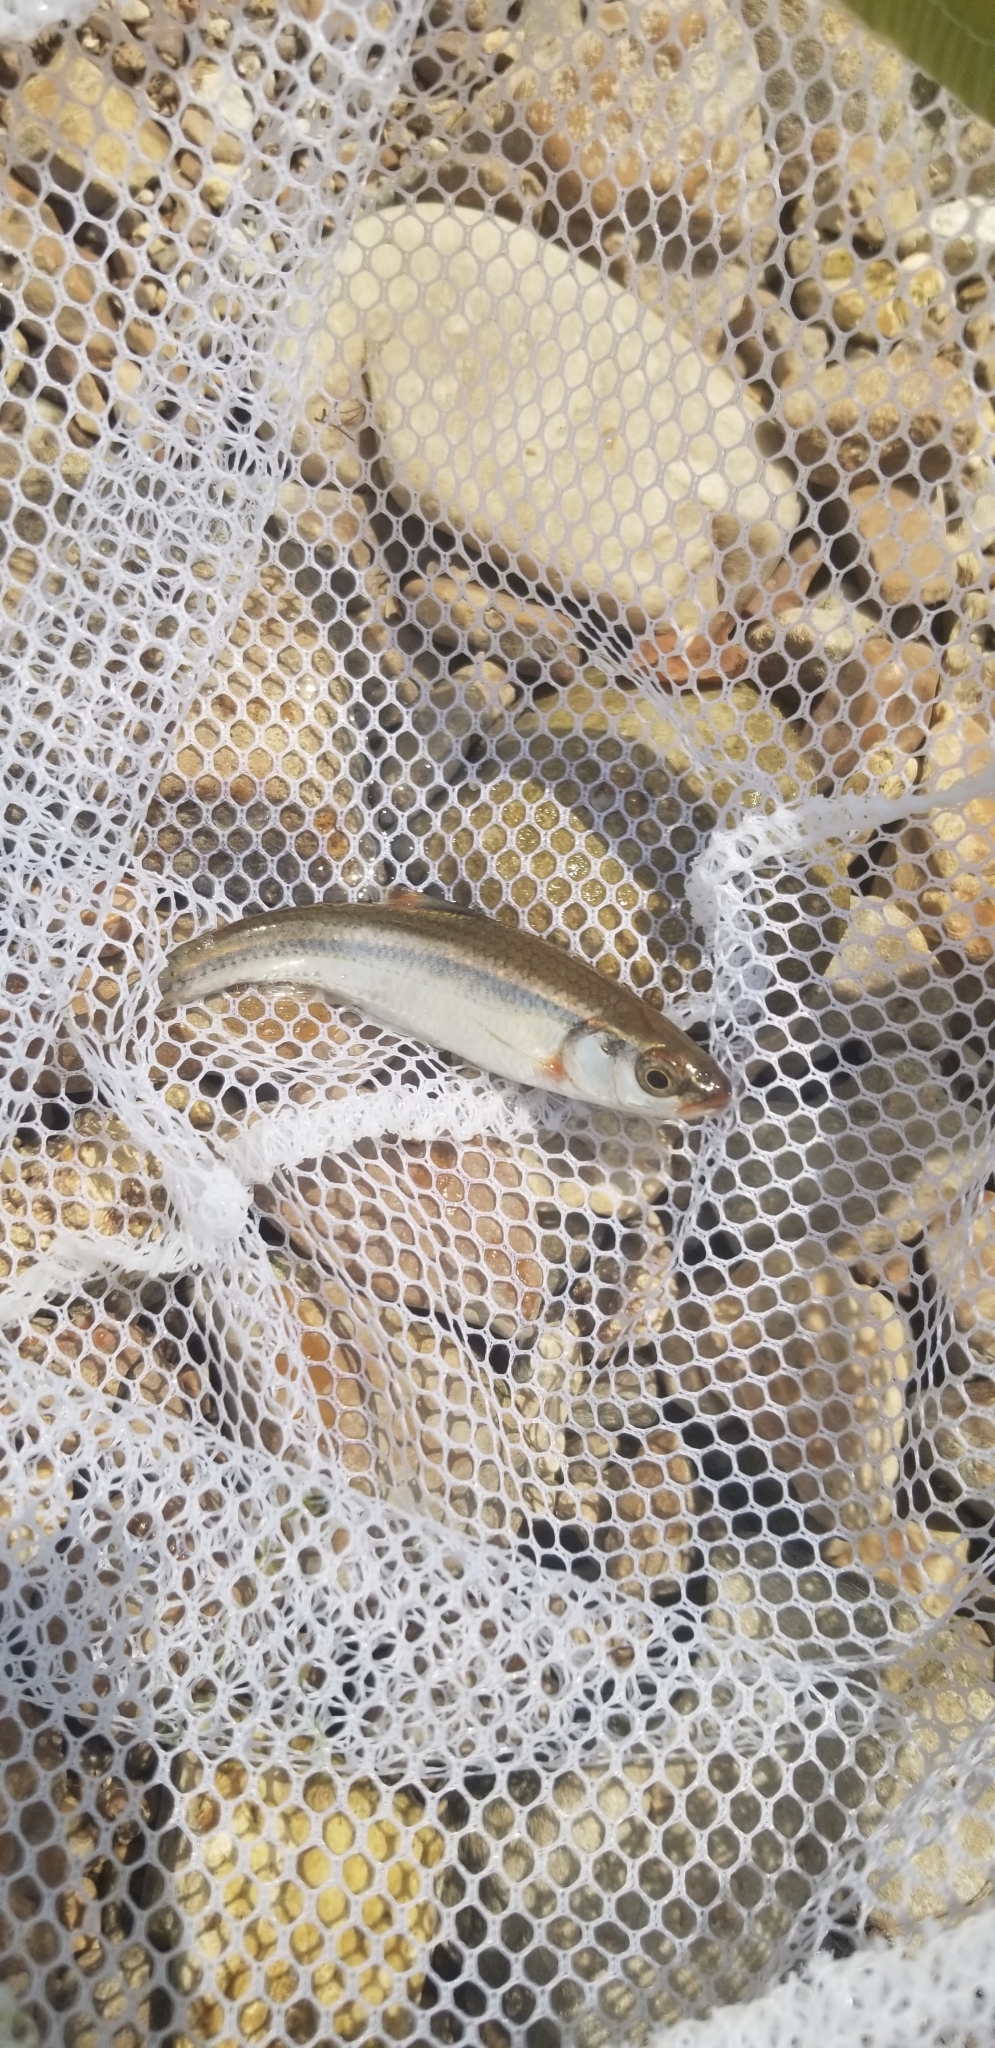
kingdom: Animalia
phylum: Chordata
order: Cypriniformes
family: Cyprinidae
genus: Luxilus
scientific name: Luxilus zonatus
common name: Bleeding shiner
